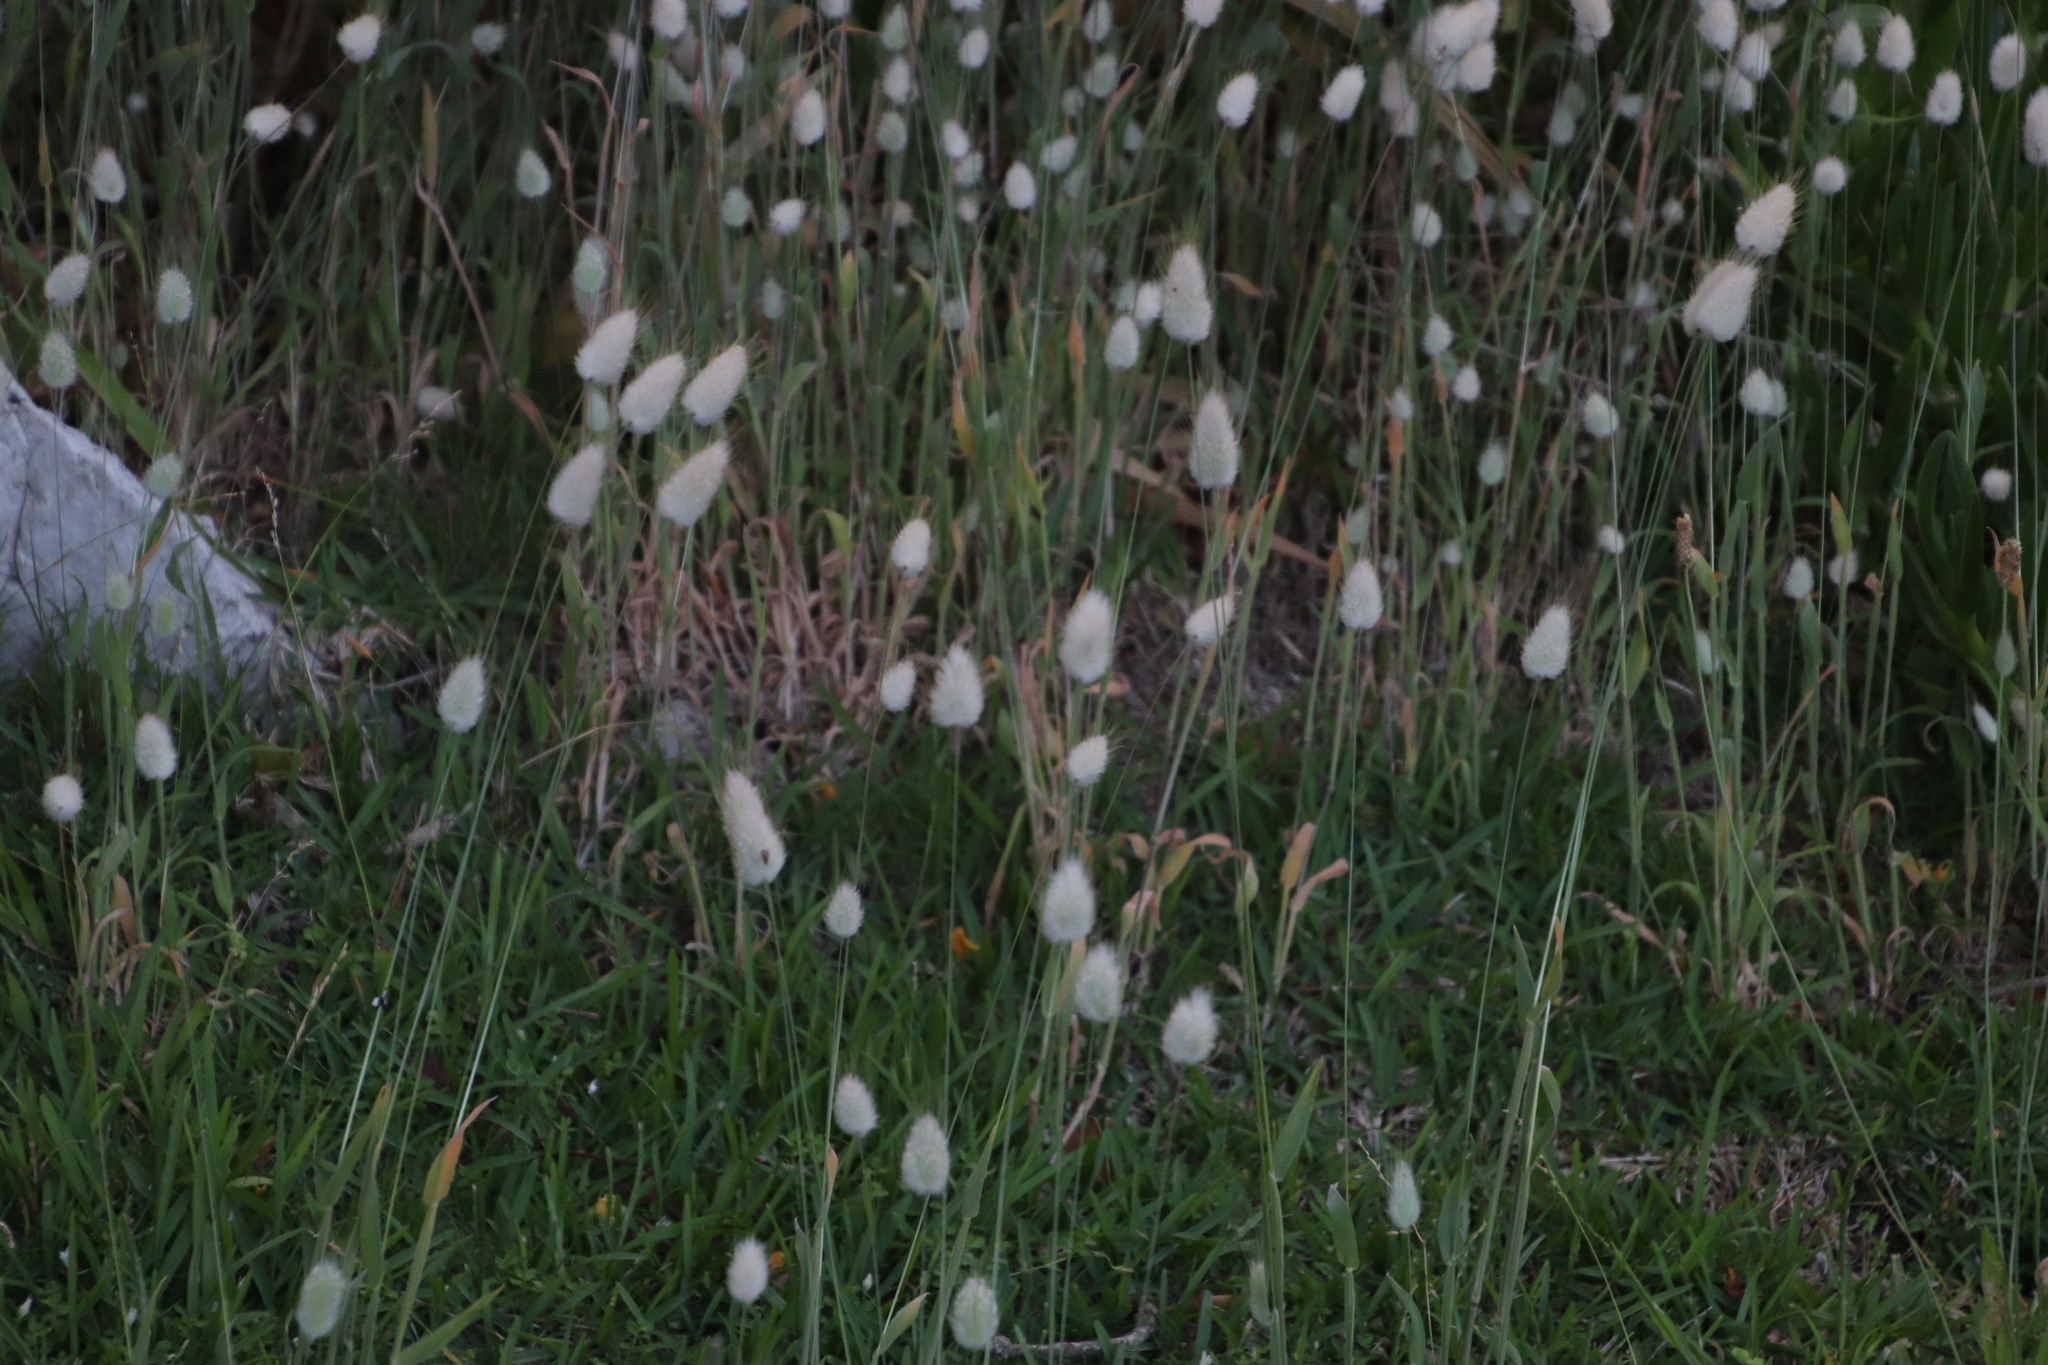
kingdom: Plantae
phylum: Tracheophyta
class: Liliopsida
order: Poales
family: Poaceae
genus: Lagurus
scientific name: Lagurus ovatus
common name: Hare's-tail
